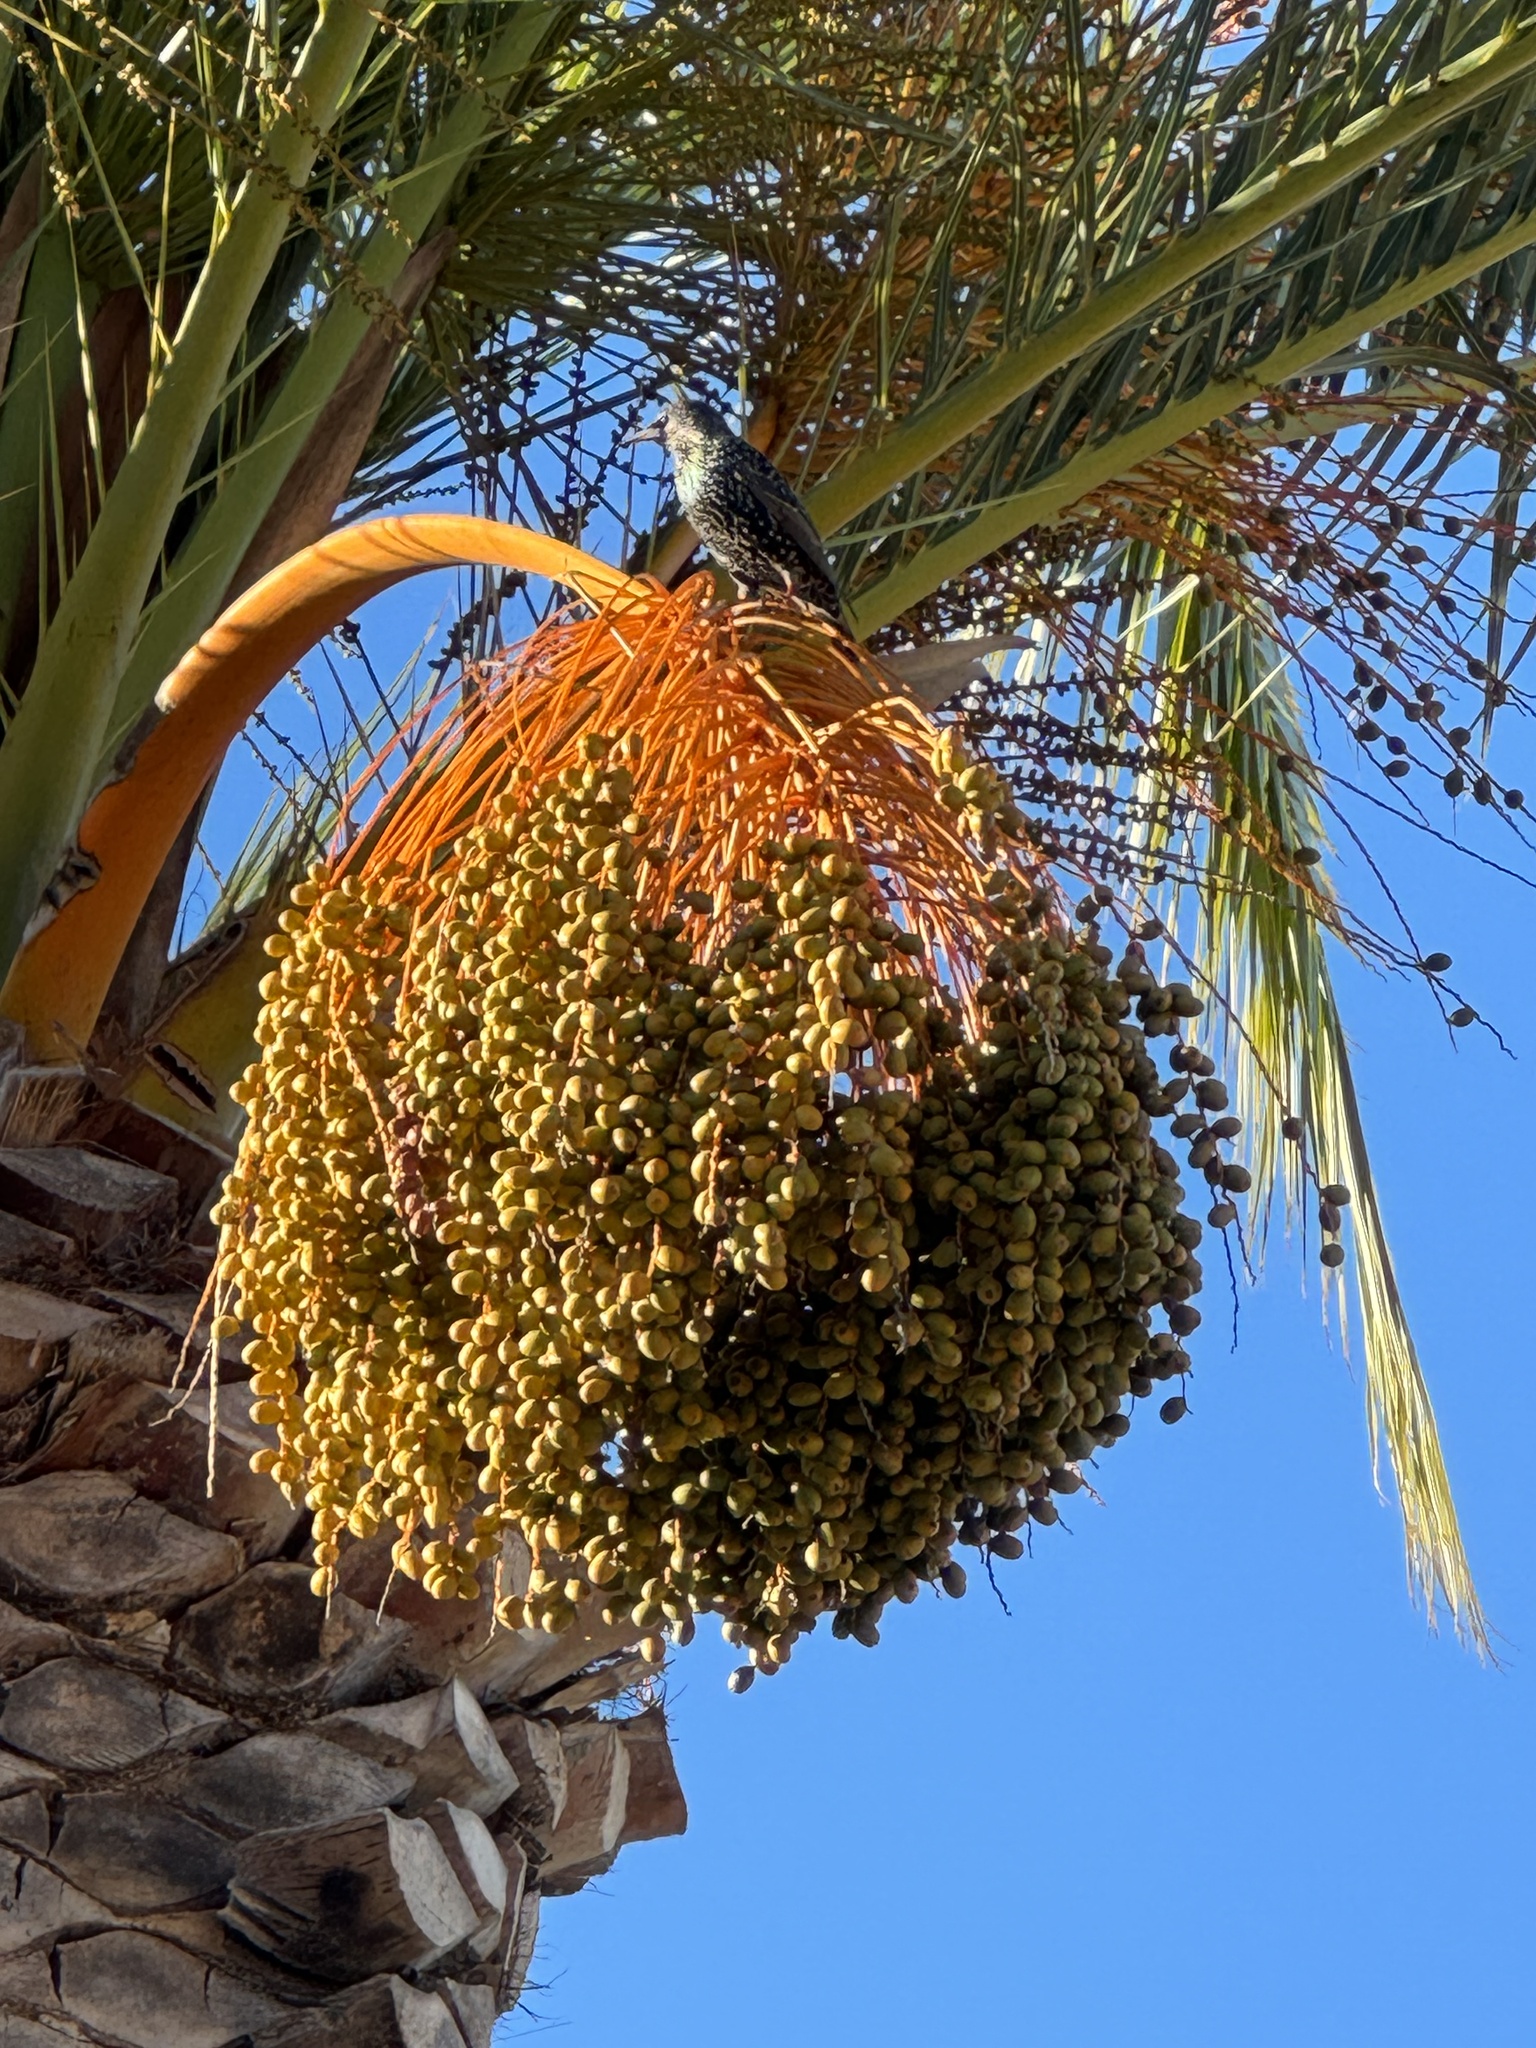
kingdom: Animalia
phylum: Chordata
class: Aves
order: Passeriformes
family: Sturnidae
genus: Sturnus
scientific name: Sturnus vulgaris
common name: Common starling
